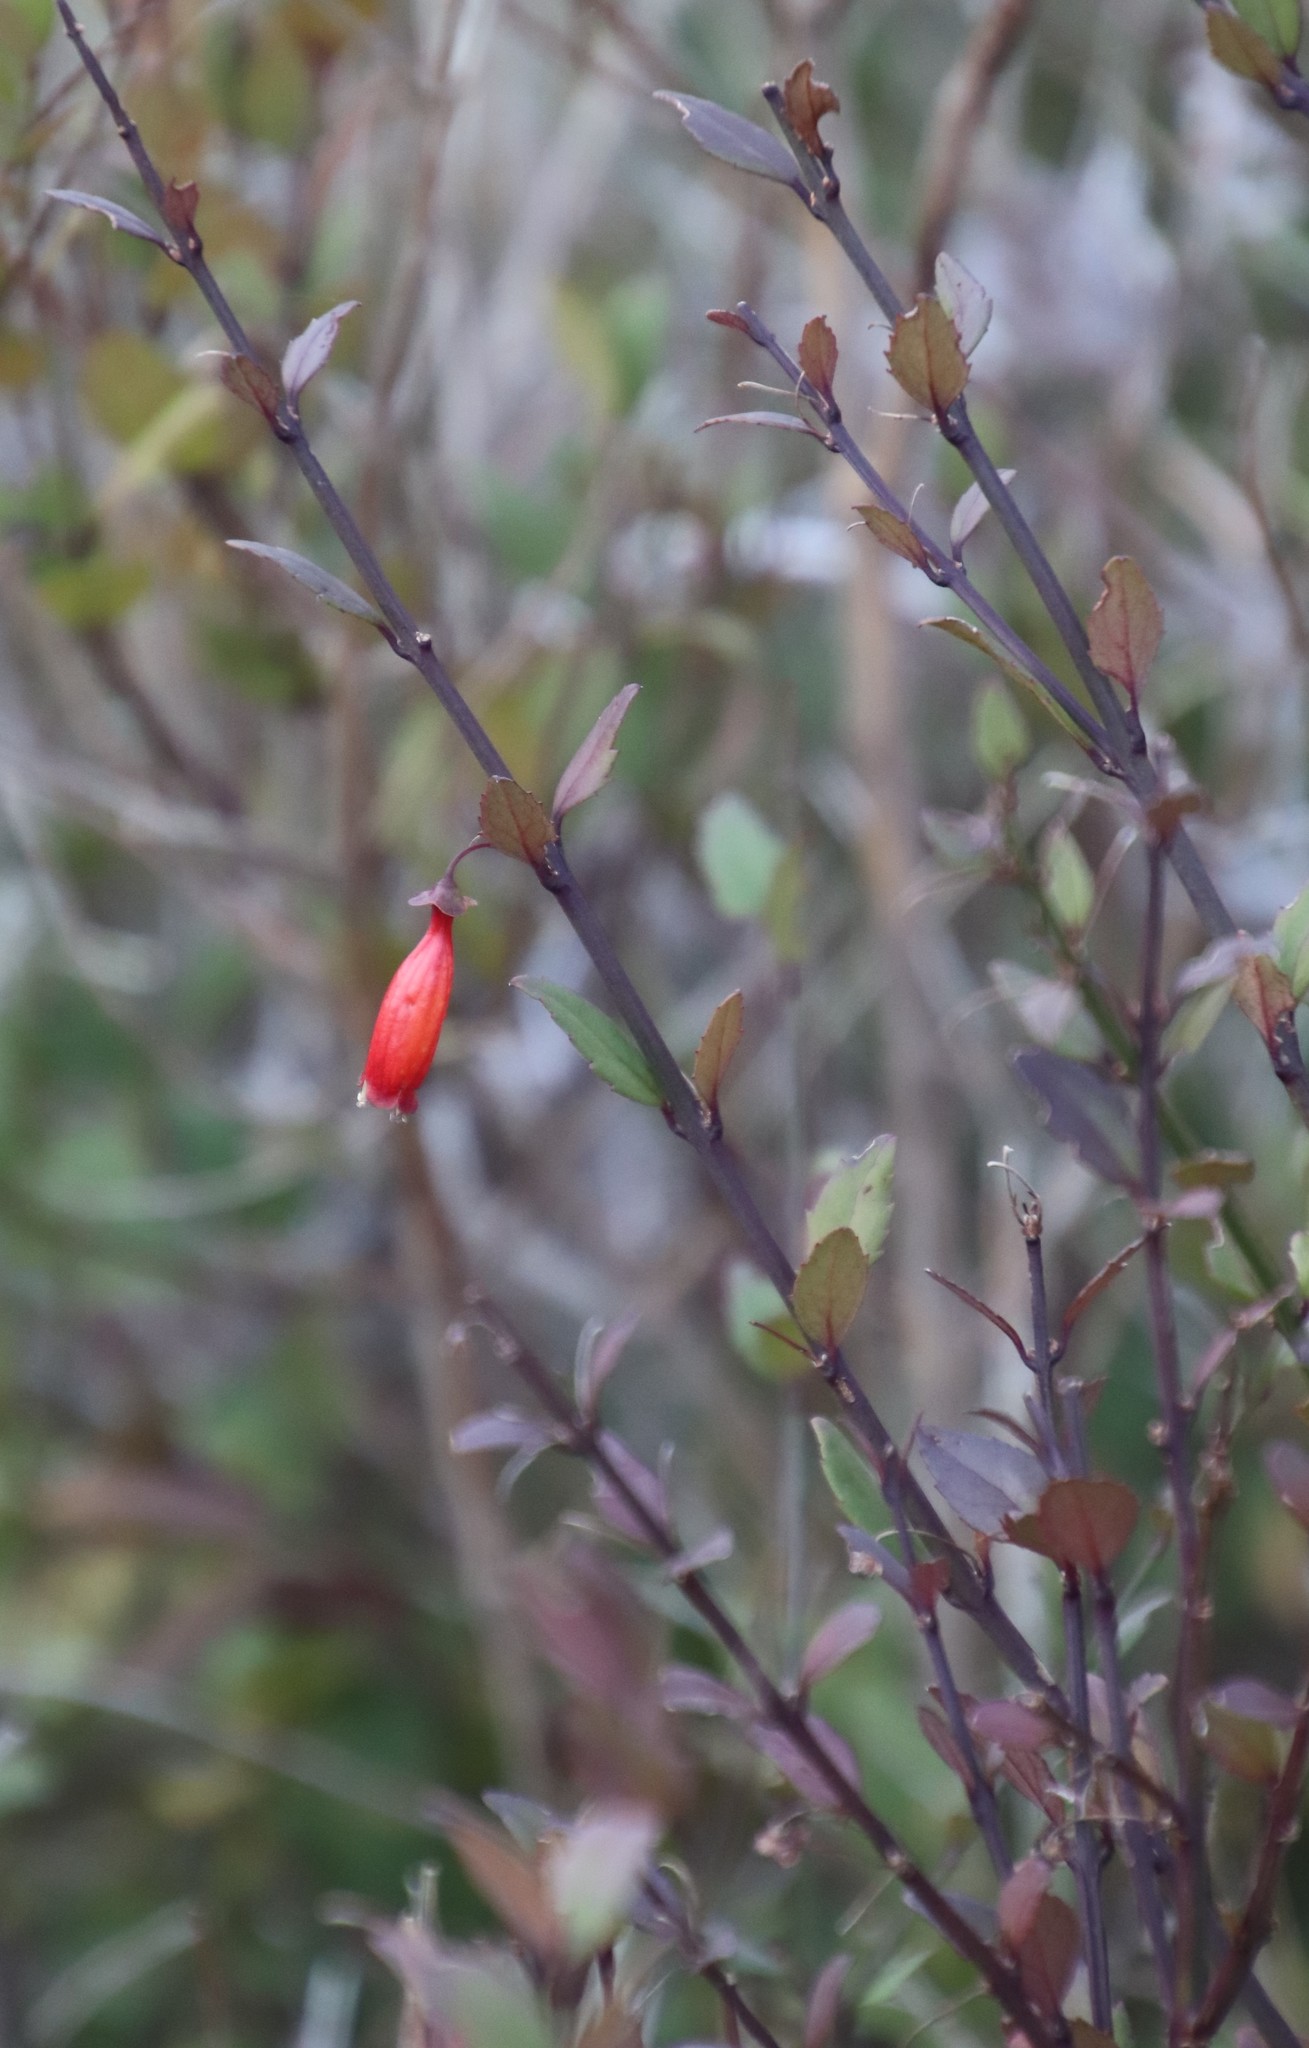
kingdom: Plantae
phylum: Tracheophyta
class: Magnoliopsida
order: Lamiales
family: Stilbaceae
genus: Halleria
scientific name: Halleria elliptica
